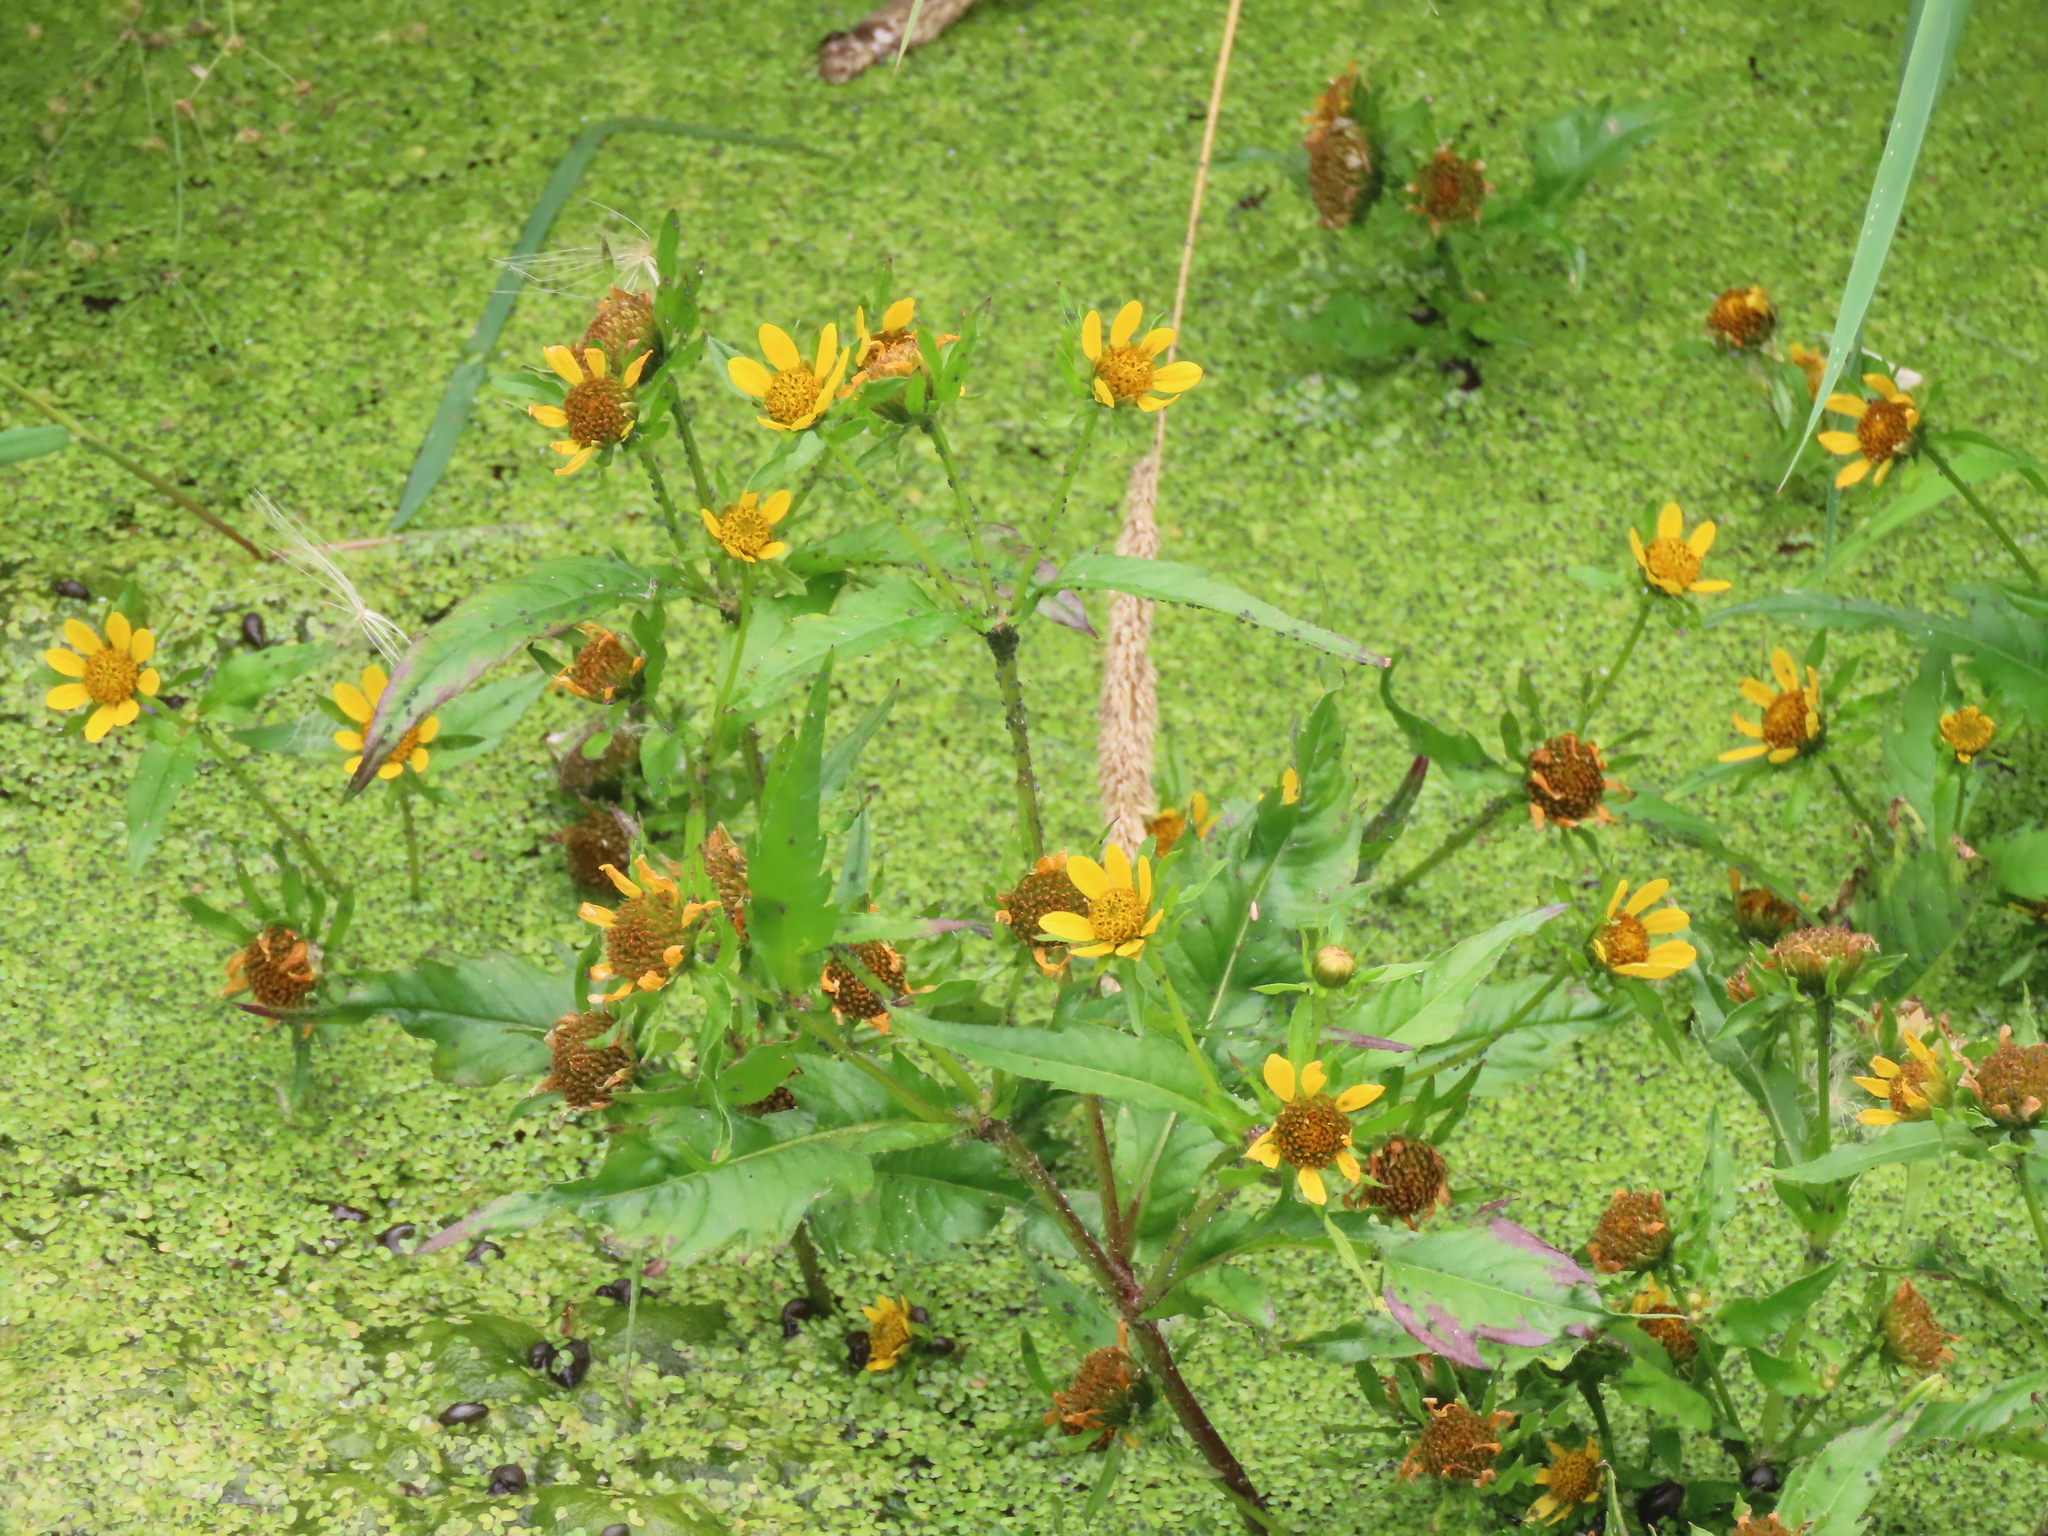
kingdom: Plantae
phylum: Tracheophyta
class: Magnoliopsida
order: Asterales
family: Asteraceae
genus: Bidens
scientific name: Bidens amplissima
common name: Vancouver island beggarticks
